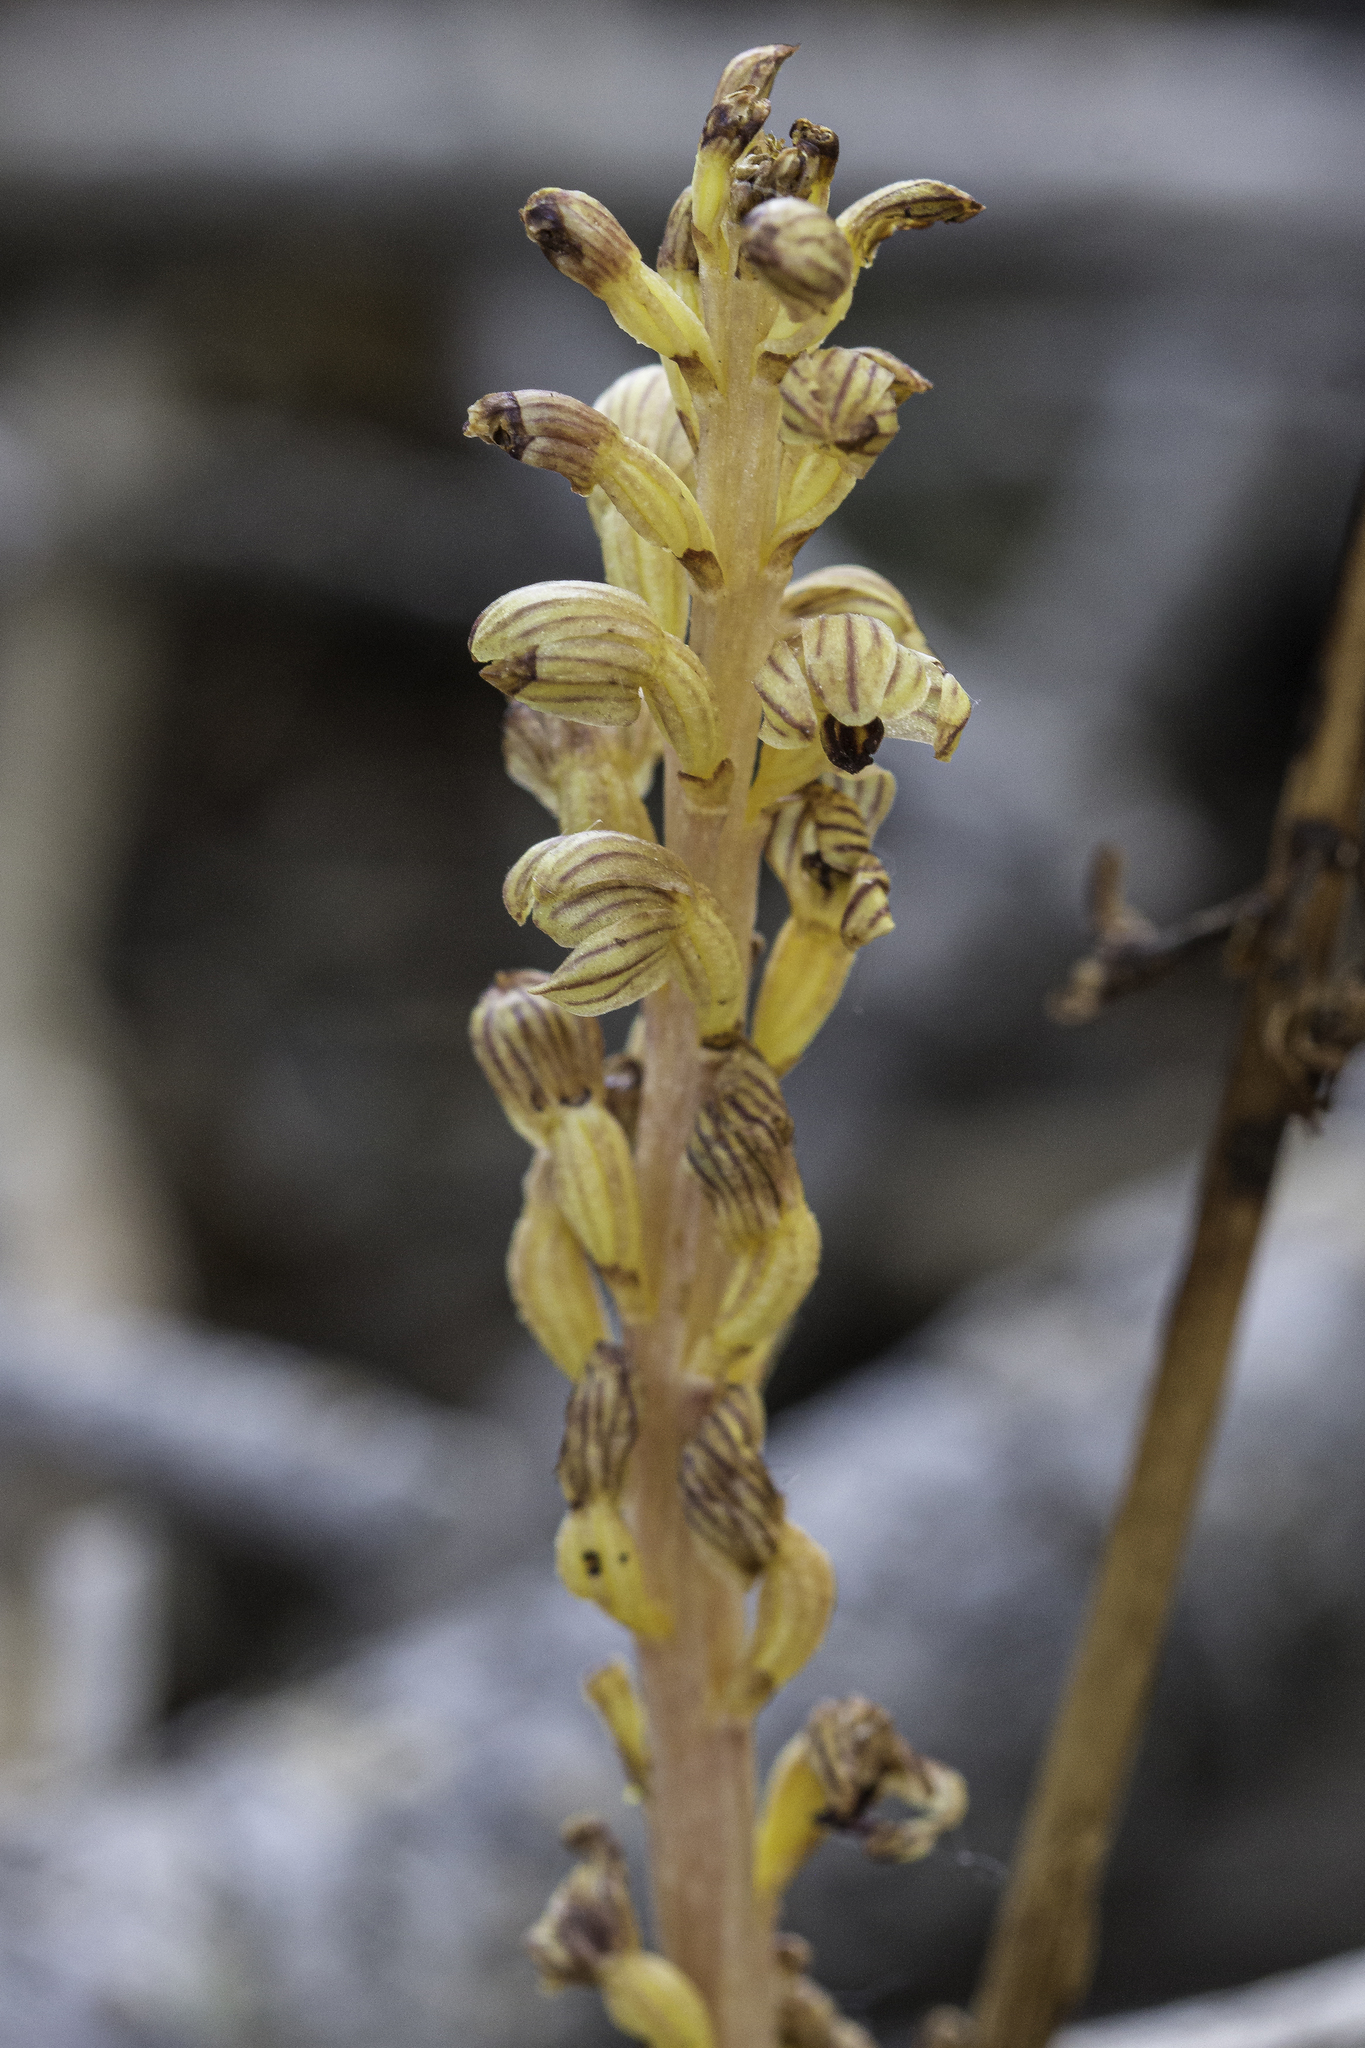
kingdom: Plantae
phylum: Tracheophyta
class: Liliopsida
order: Asparagales
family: Orchidaceae
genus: Corallorhiza
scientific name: Corallorhiza striata
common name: Hooded coralroot
